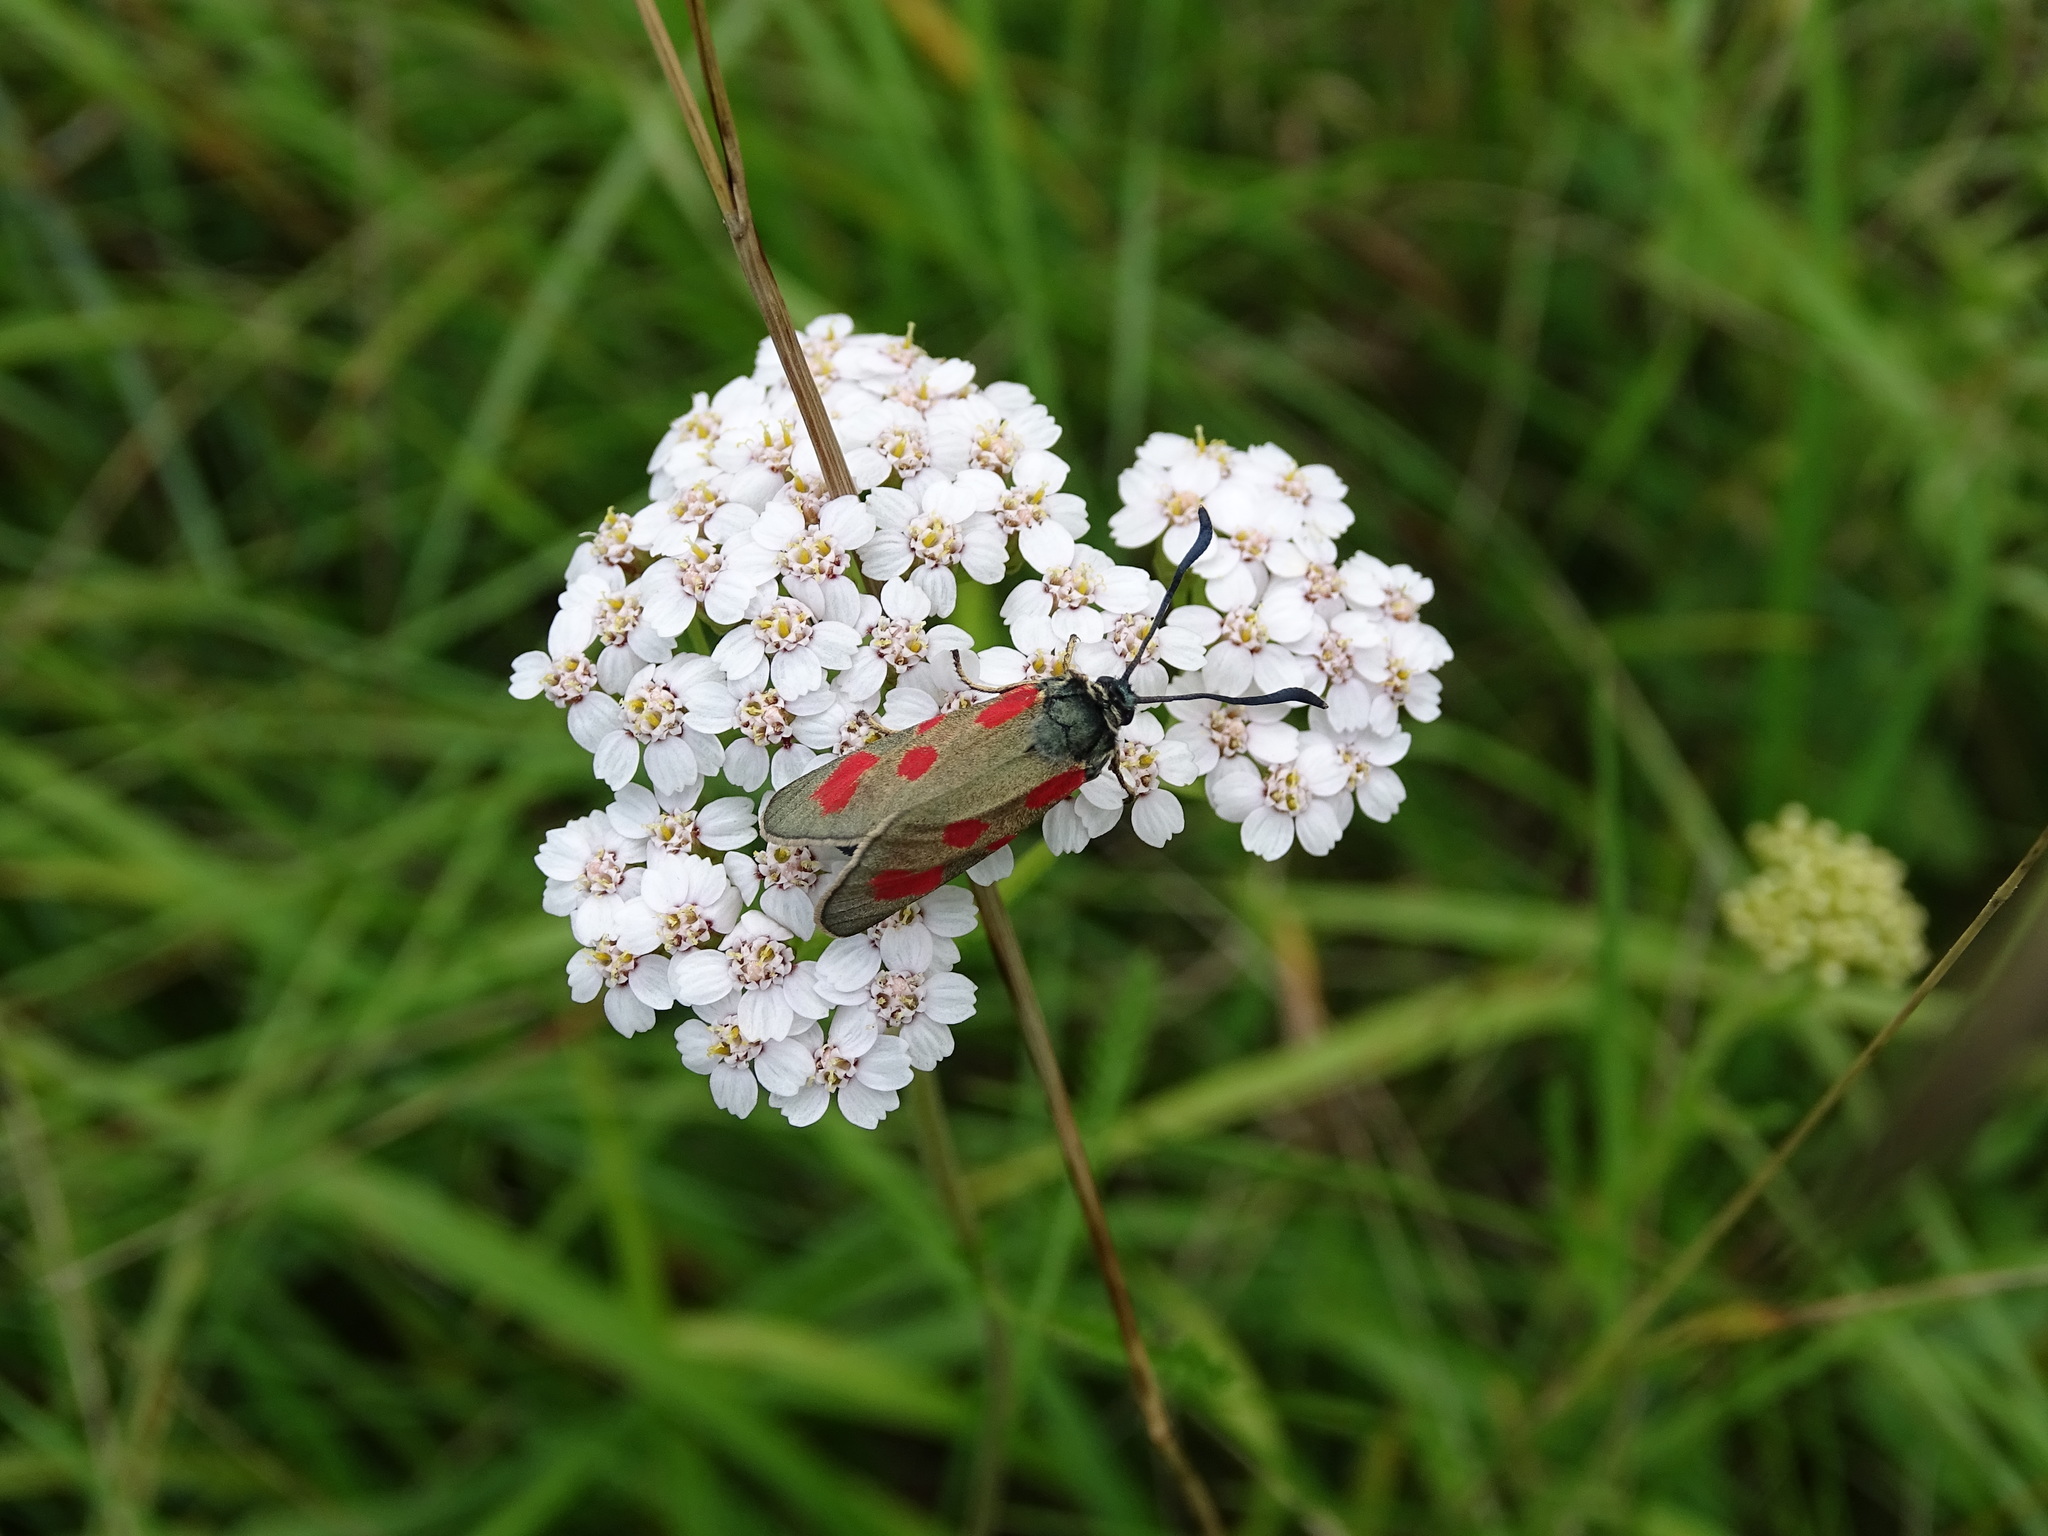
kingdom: Animalia
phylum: Arthropoda
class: Insecta
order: Lepidoptera
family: Zygaenidae
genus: Zygaena
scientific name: Zygaena loti
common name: Slender scotch burnet
